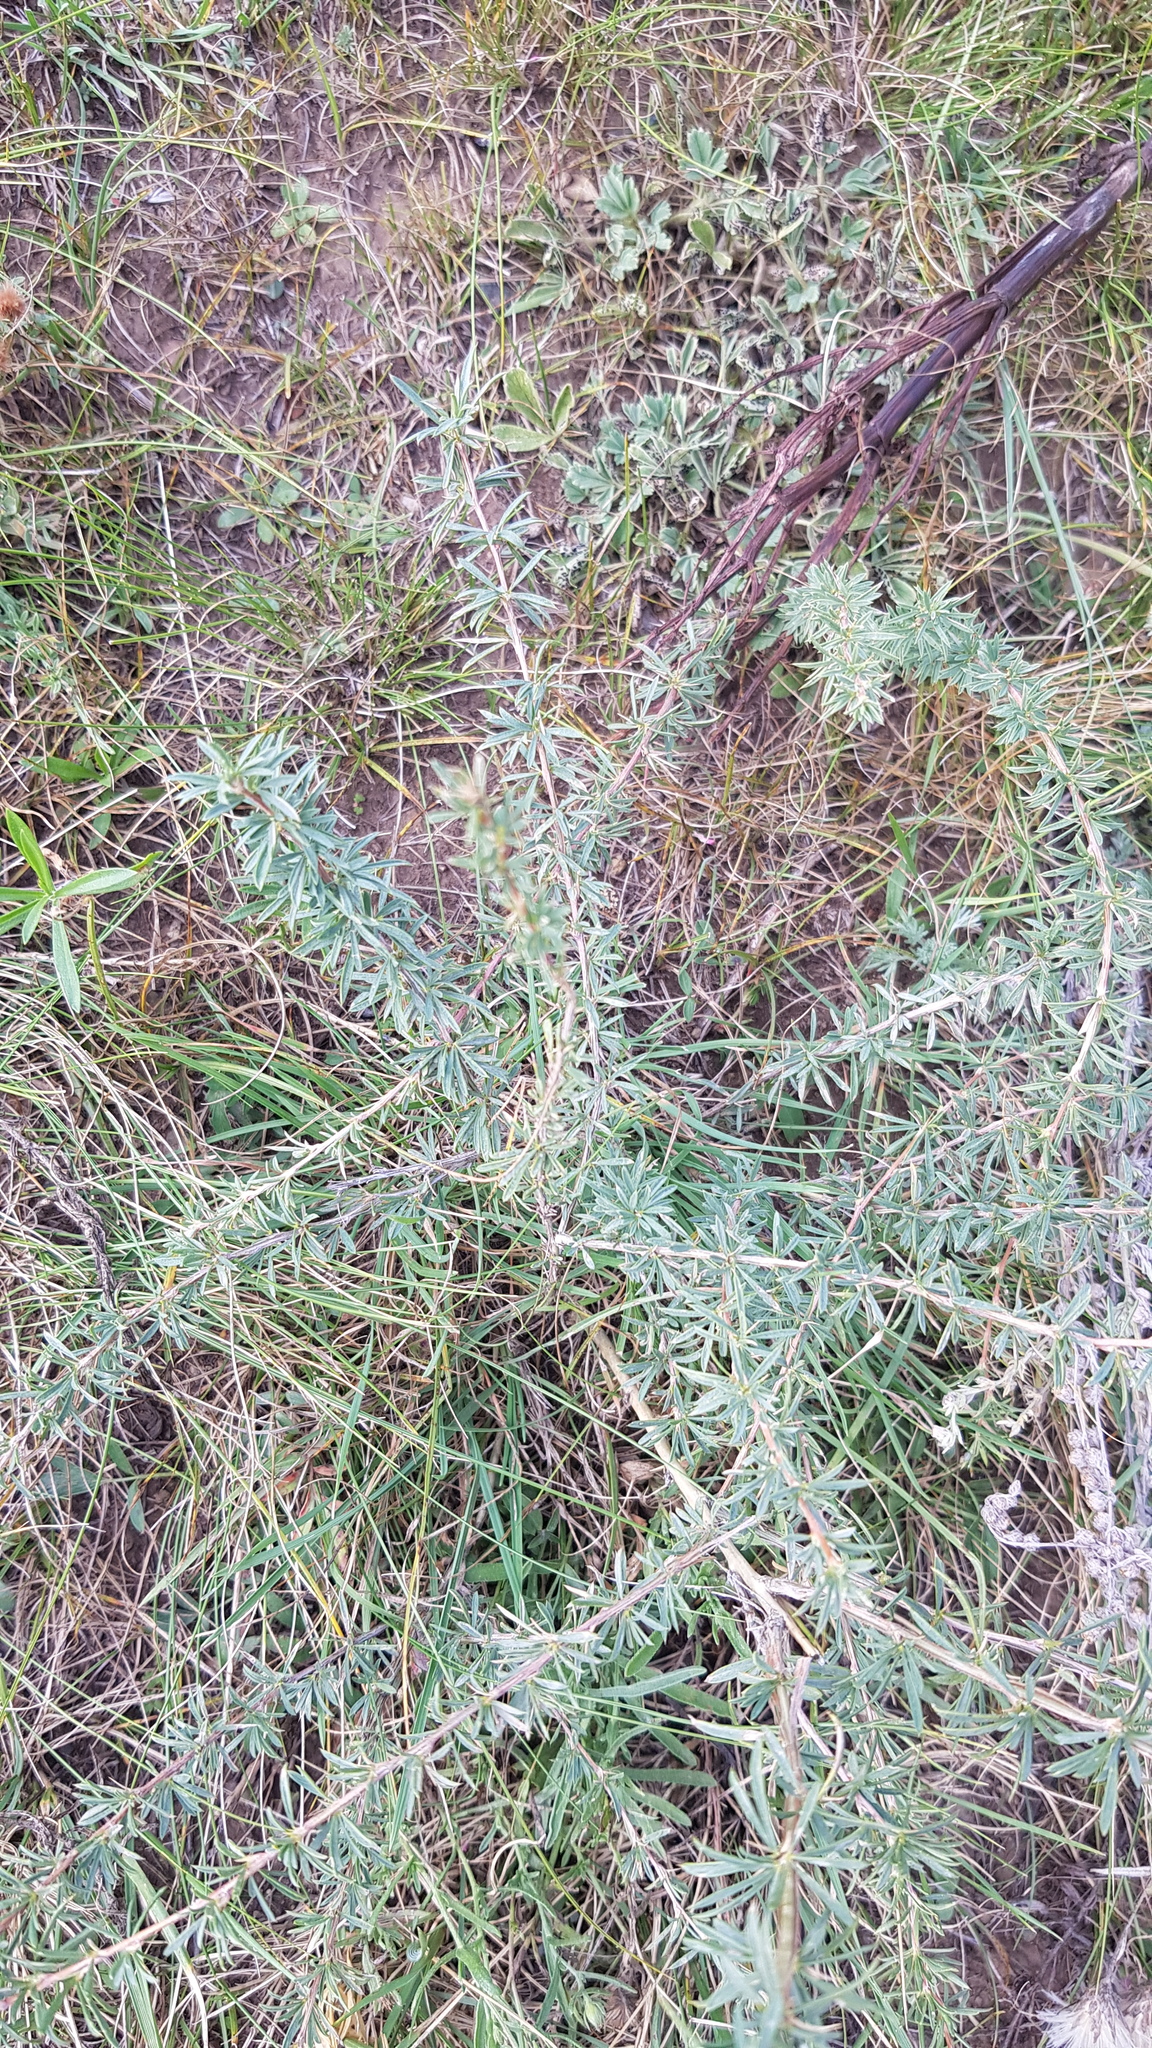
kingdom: Plantae
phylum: Tracheophyta
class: Magnoliopsida
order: Fabales
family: Fabaceae
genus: Caragana
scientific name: Caragana stenophylla
